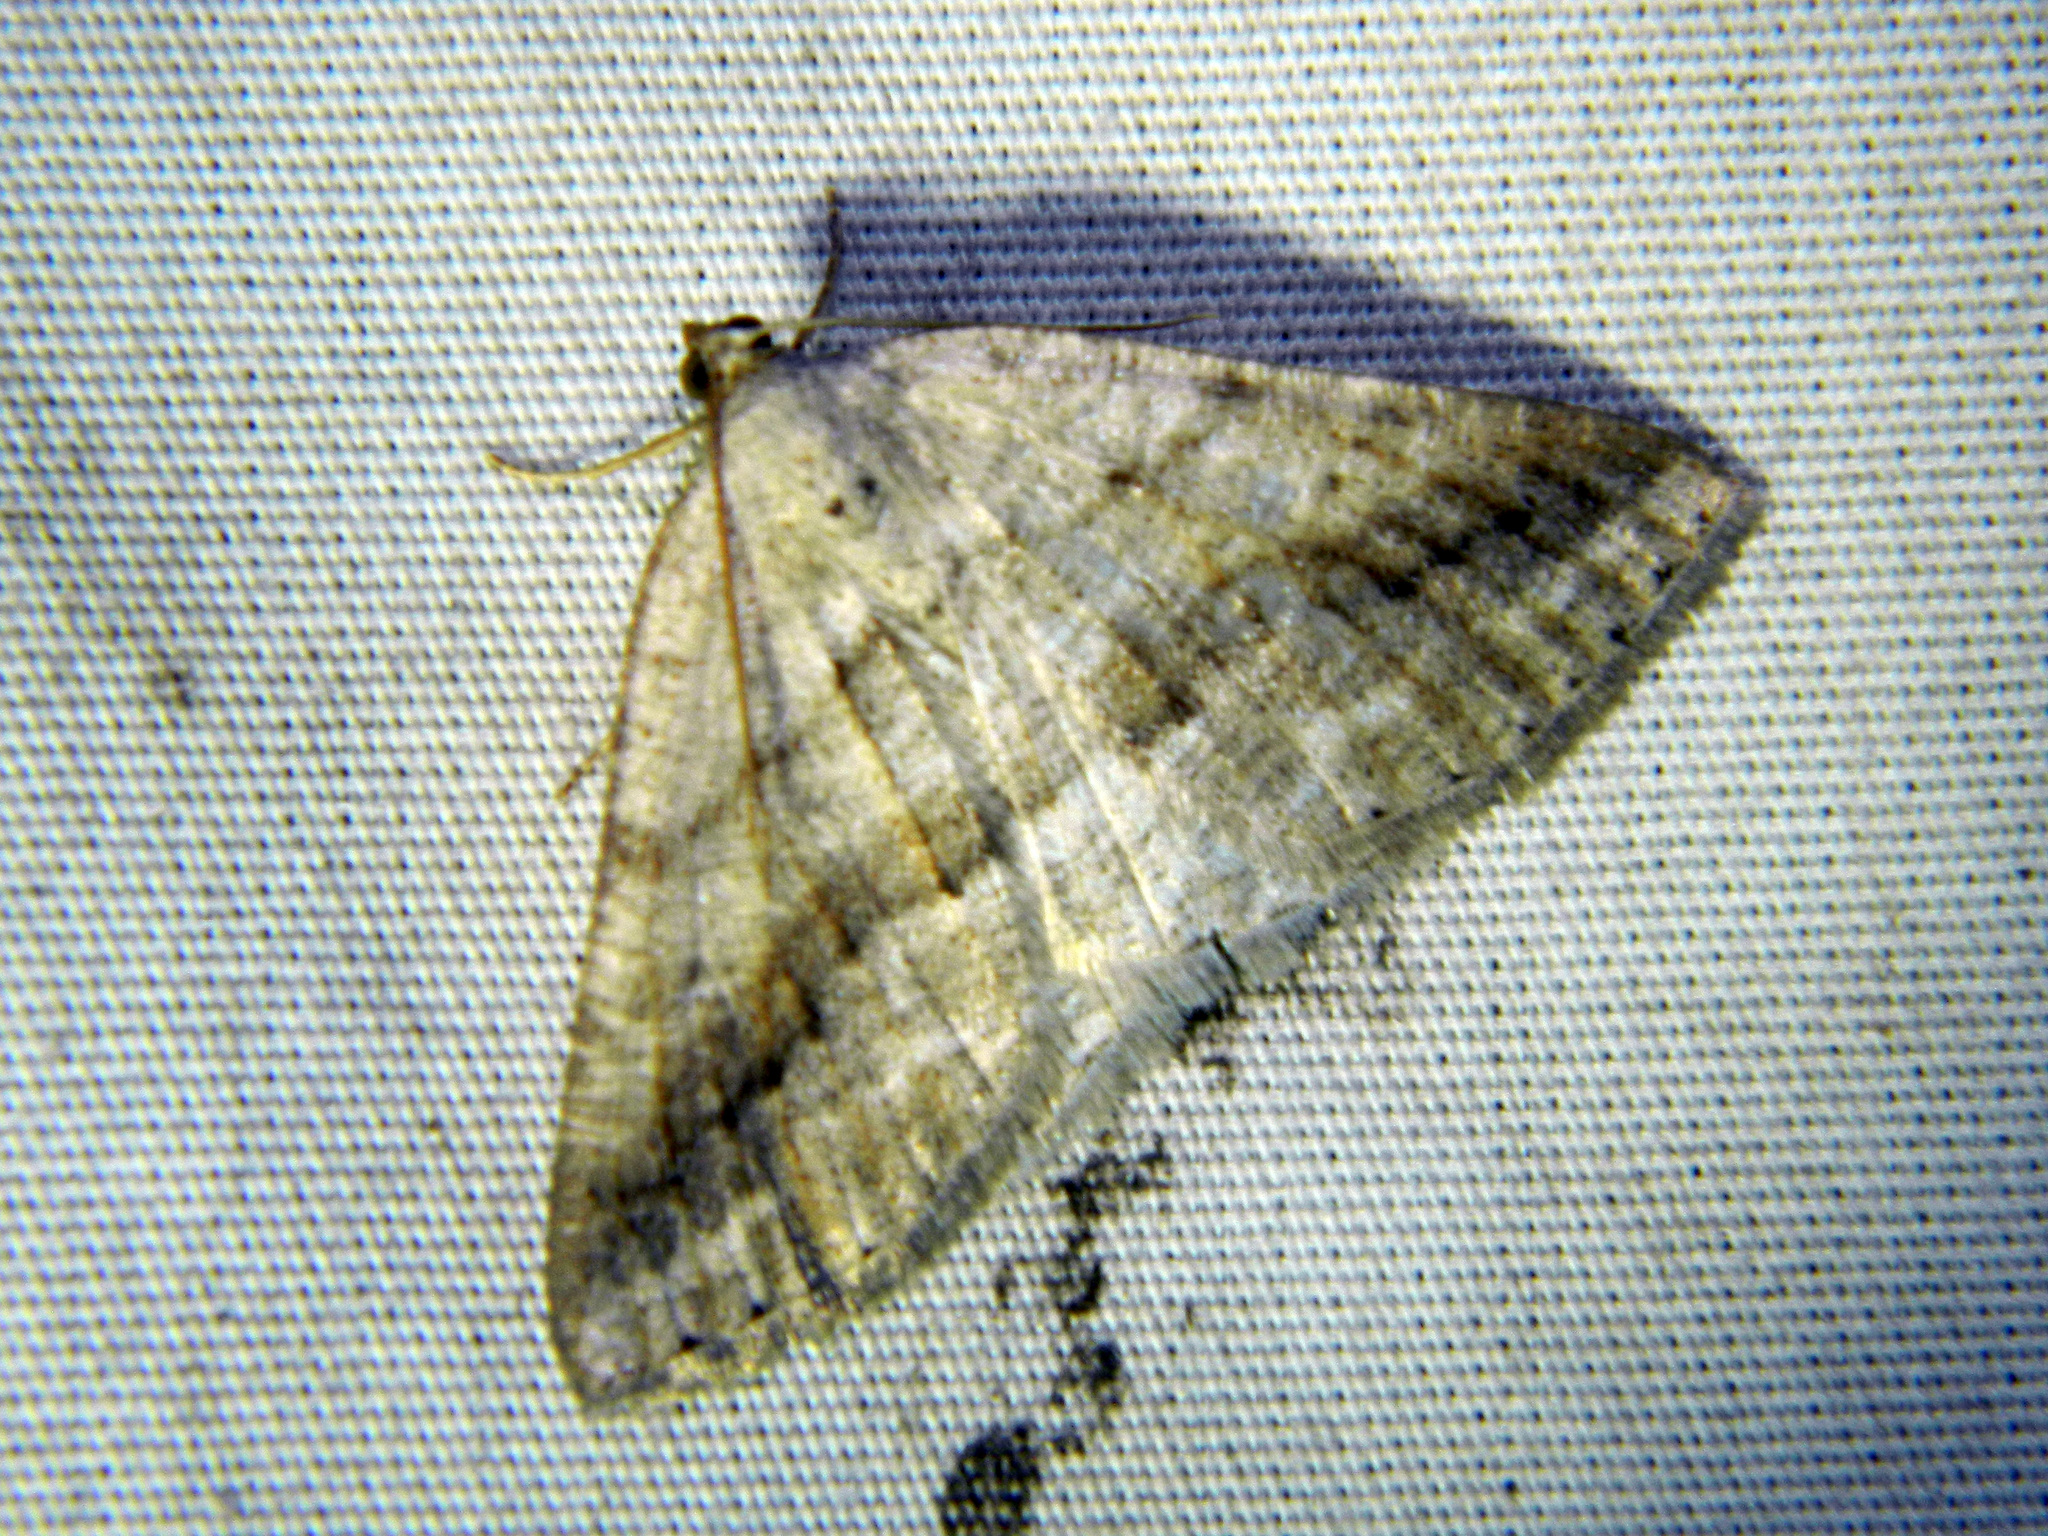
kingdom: Animalia
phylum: Arthropoda
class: Insecta
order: Lepidoptera
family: Geometridae
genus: Tacparia
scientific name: Tacparia detersata
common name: Pale alder moth
